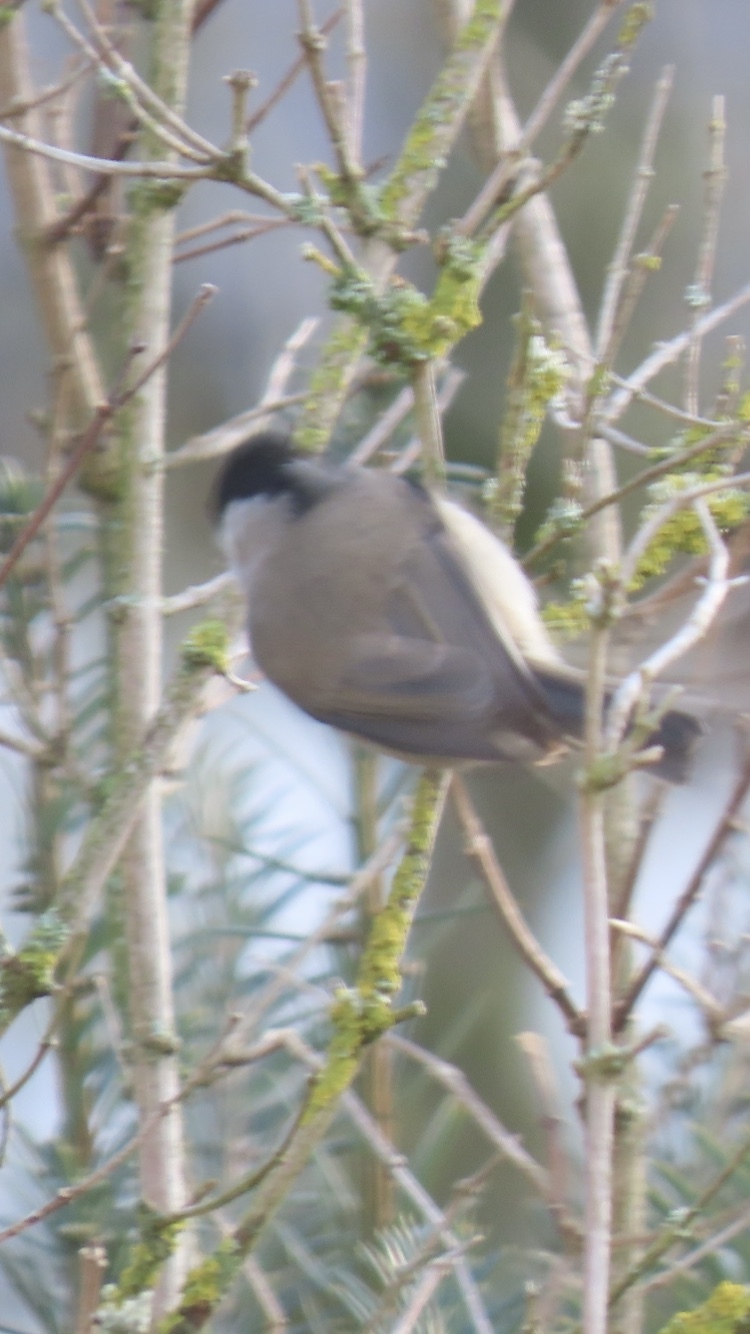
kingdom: Animalia
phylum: Chordata
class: Aves
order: Passeriformes
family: Paridae
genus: Poecile
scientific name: Poecile palustris
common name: Marsh tit
